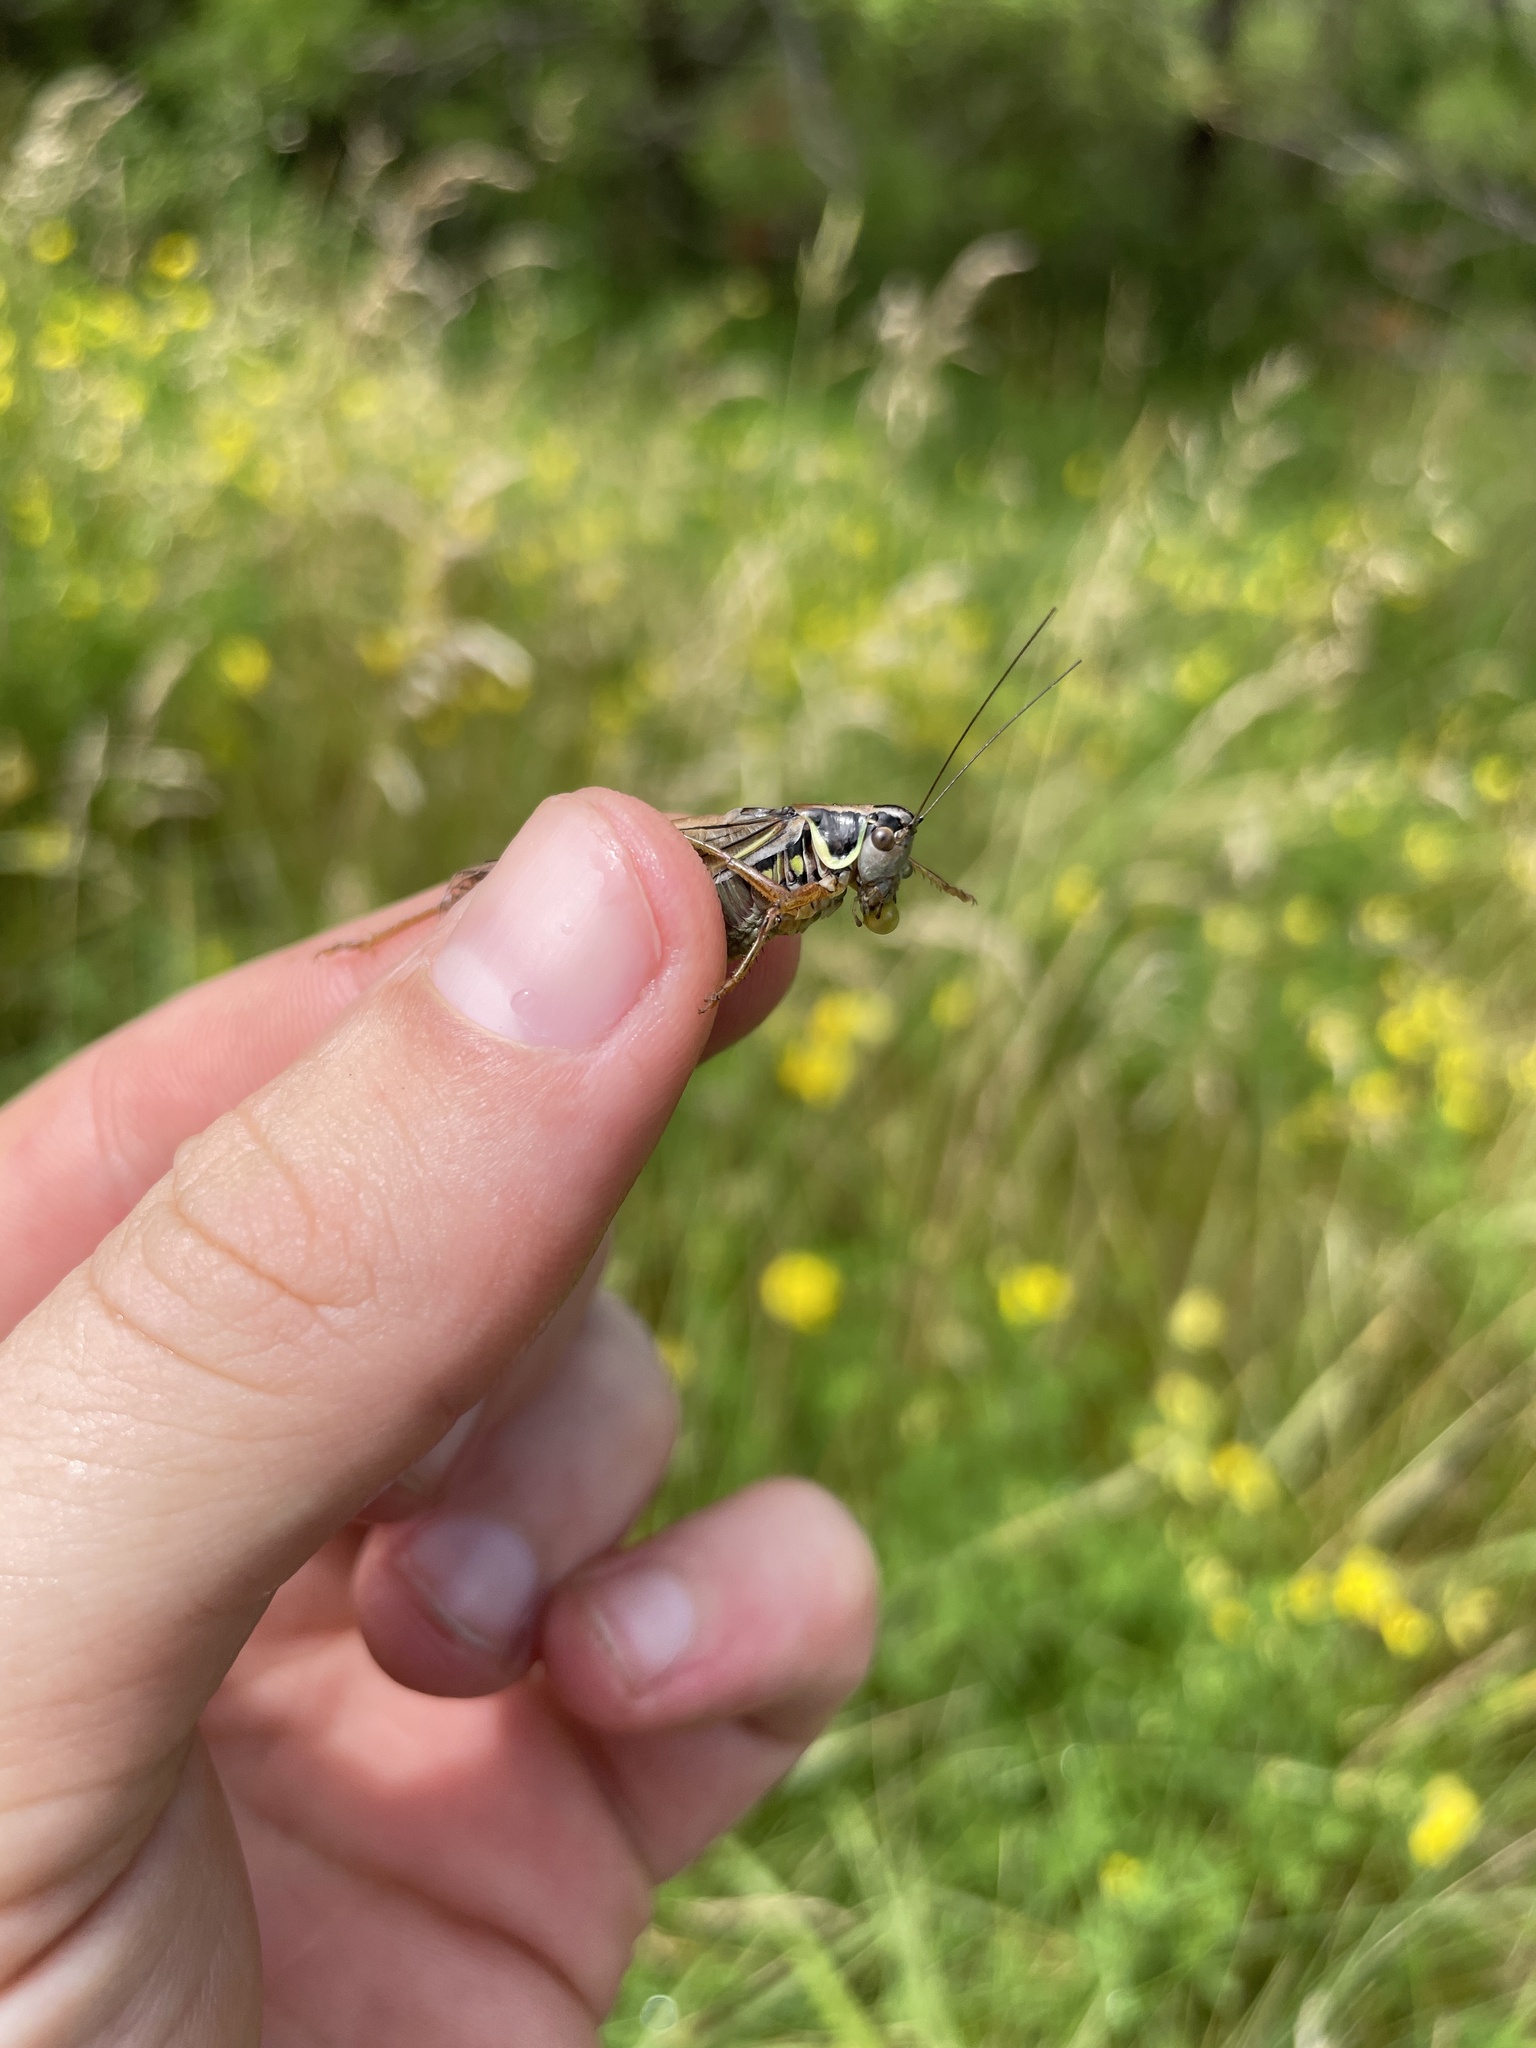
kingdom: Animalia
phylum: Arthropoda
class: Insecta
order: Orthoptera
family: Tettigoniidae
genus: Roeseliana
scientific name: Roeseliana roeselii
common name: Roesel's bush cricket
